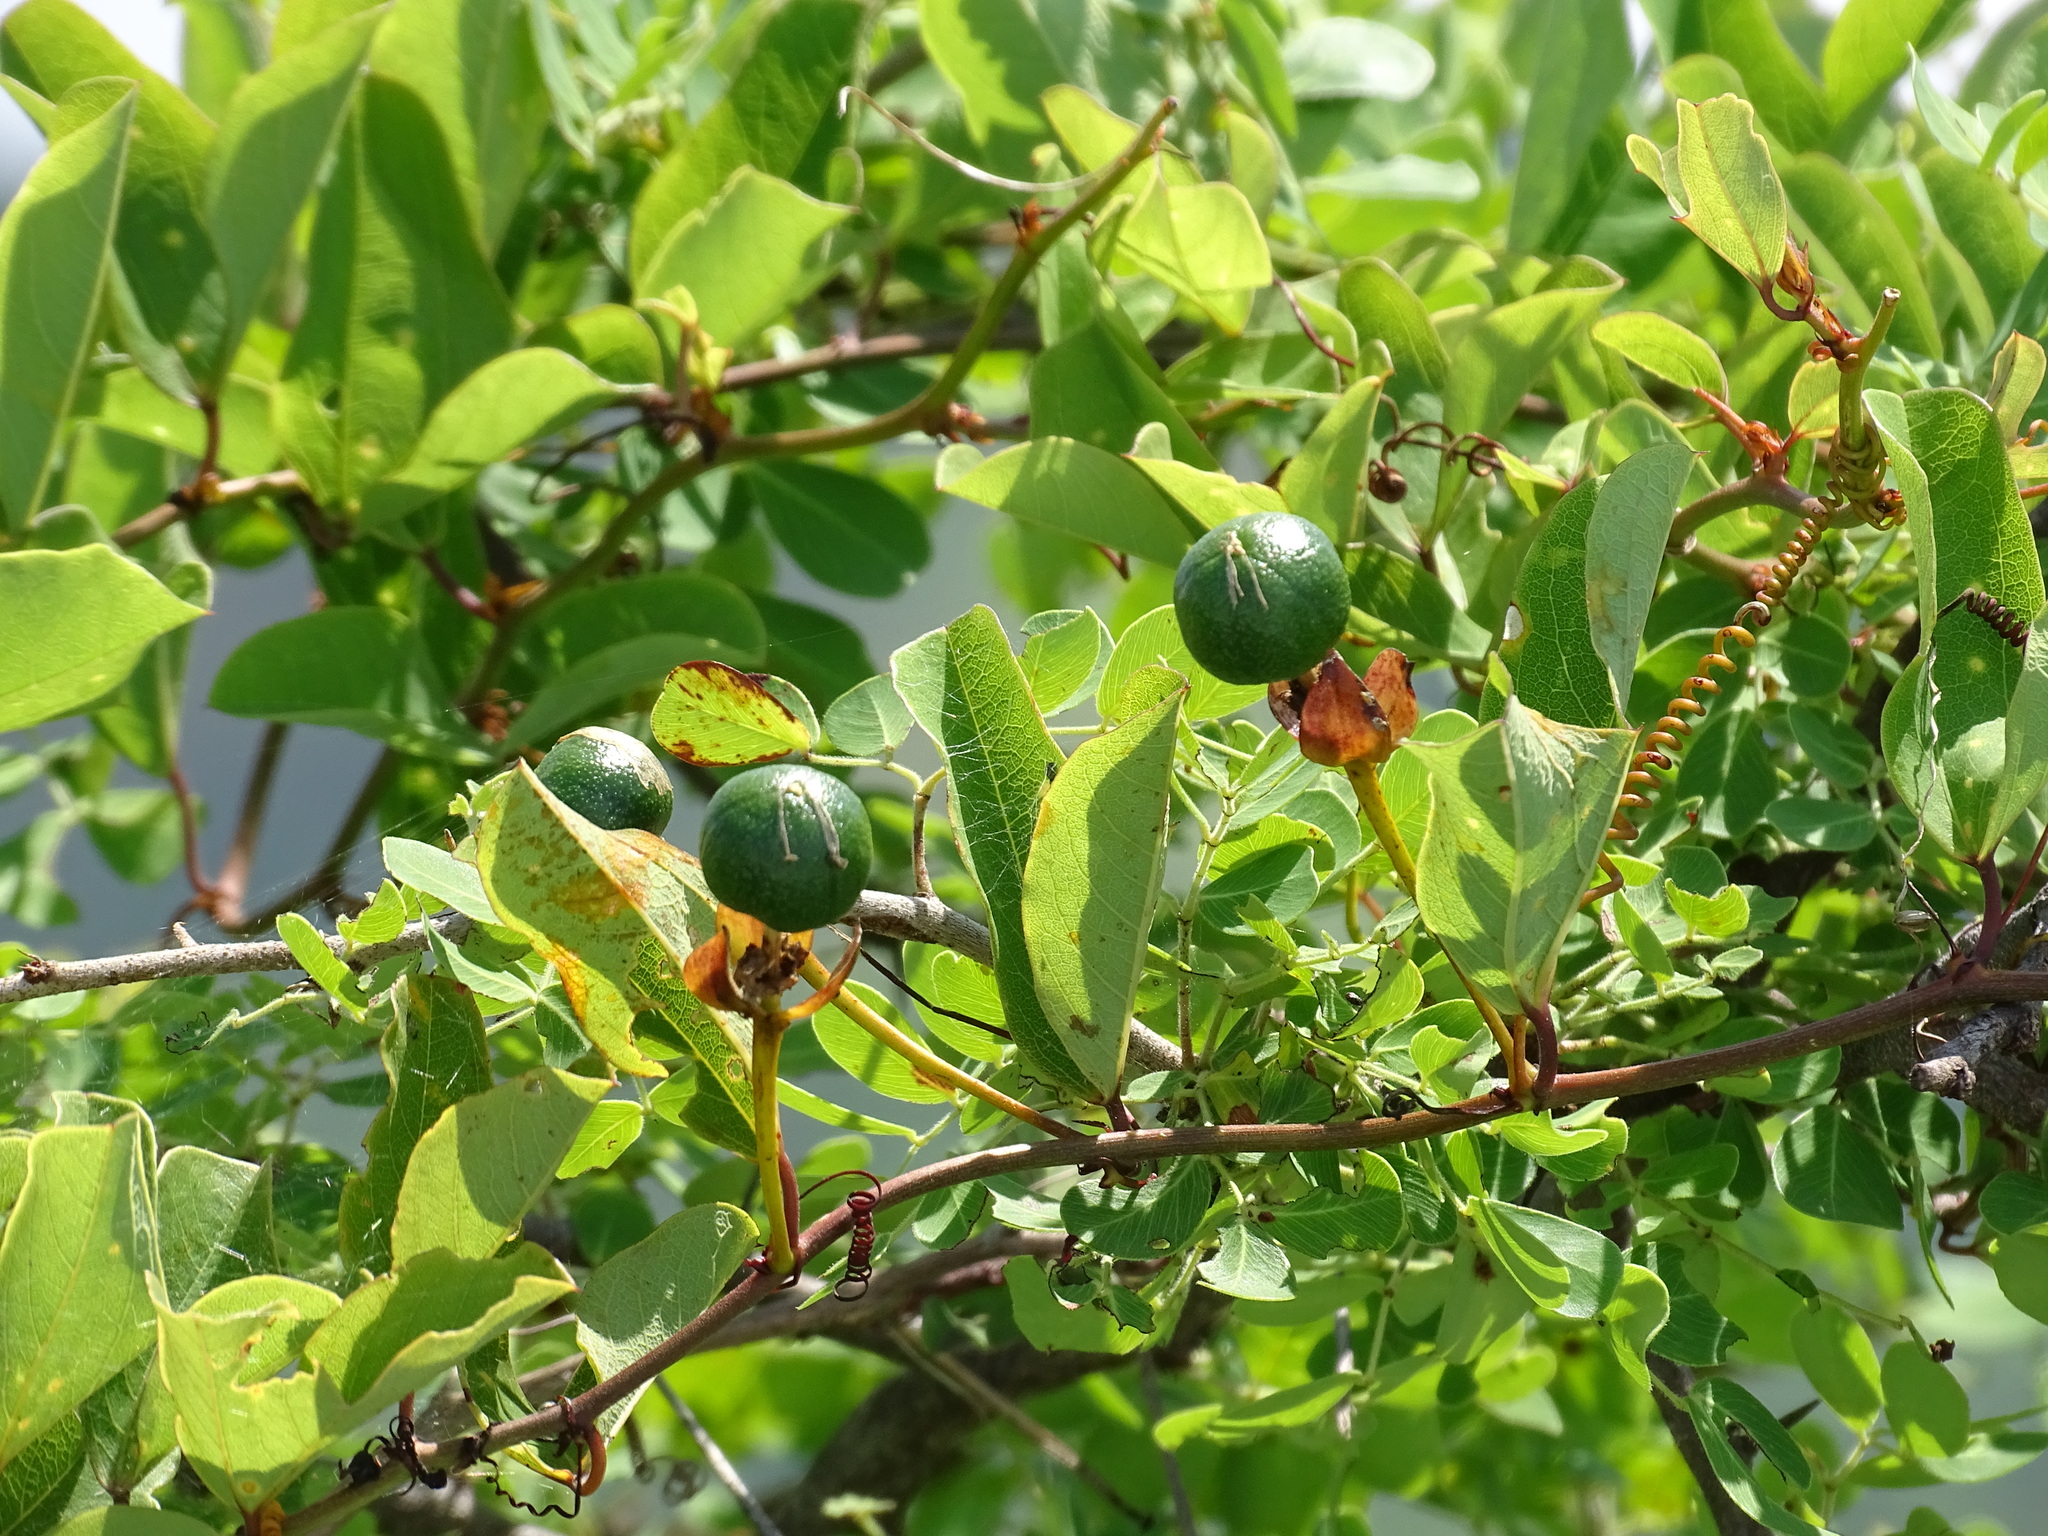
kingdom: Plantae
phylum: Tracheophyta
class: Magnoliopsida
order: Malpighiales
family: Passifloraceae
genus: Passiflora
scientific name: Passiflora bicornis
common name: Wingleaf passionflower
